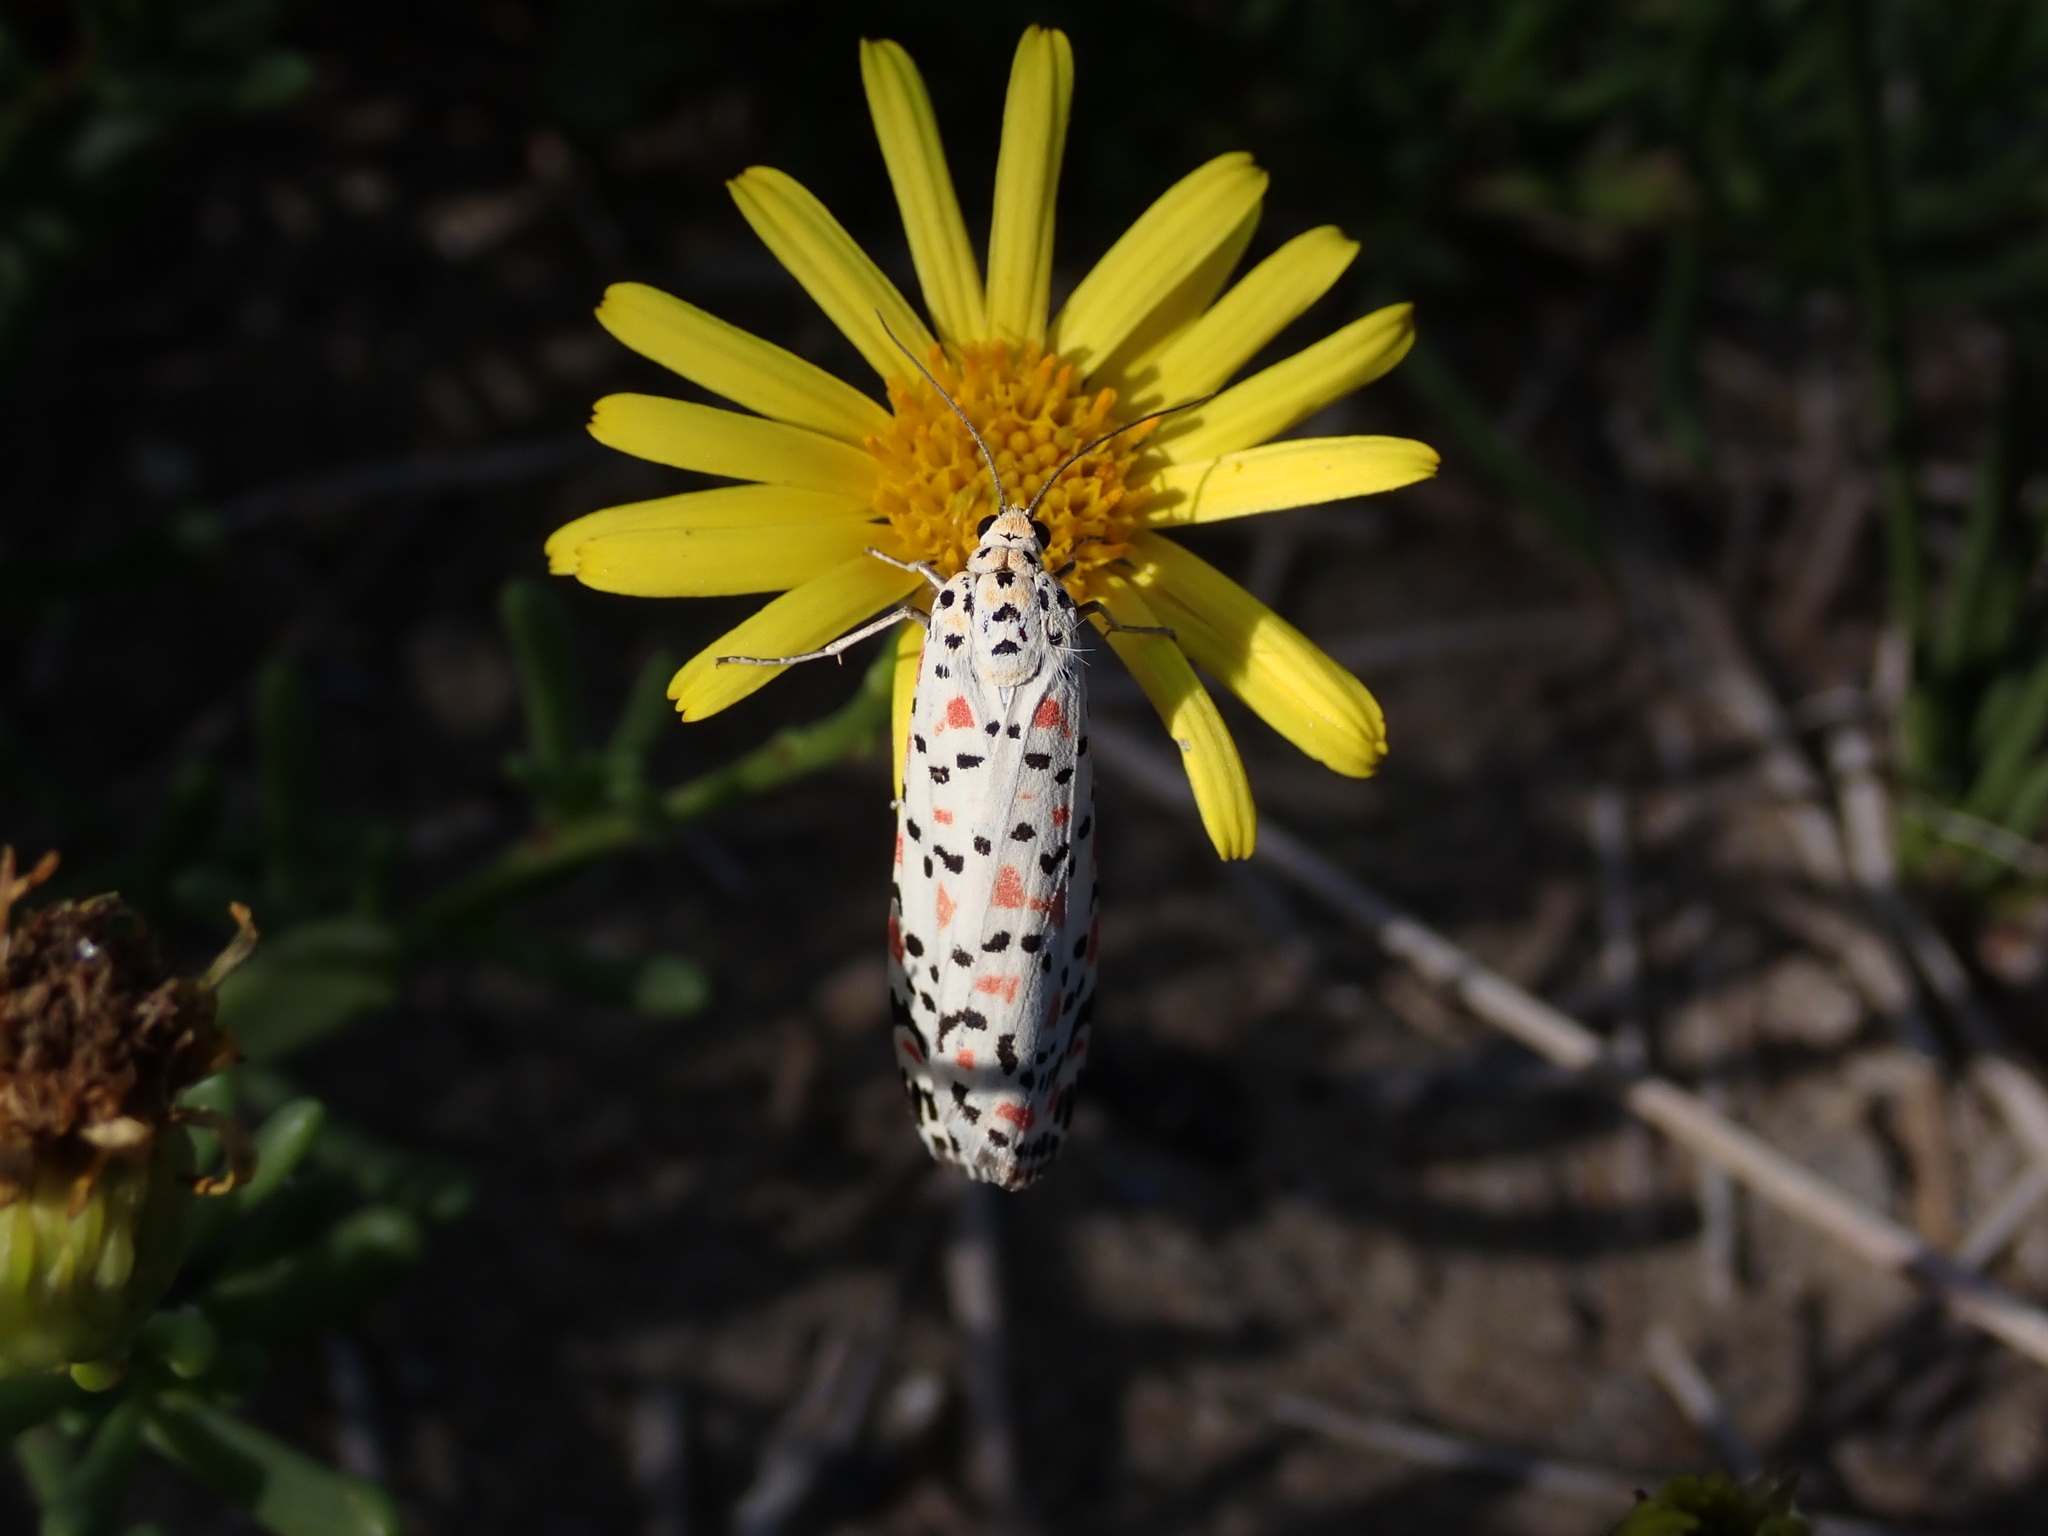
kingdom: Animalia
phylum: Arthropoda
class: Insecta
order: Lepidoptera
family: Erebidae
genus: Utetheisa
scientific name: Utetheisa pulchella
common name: Crimson speckled
